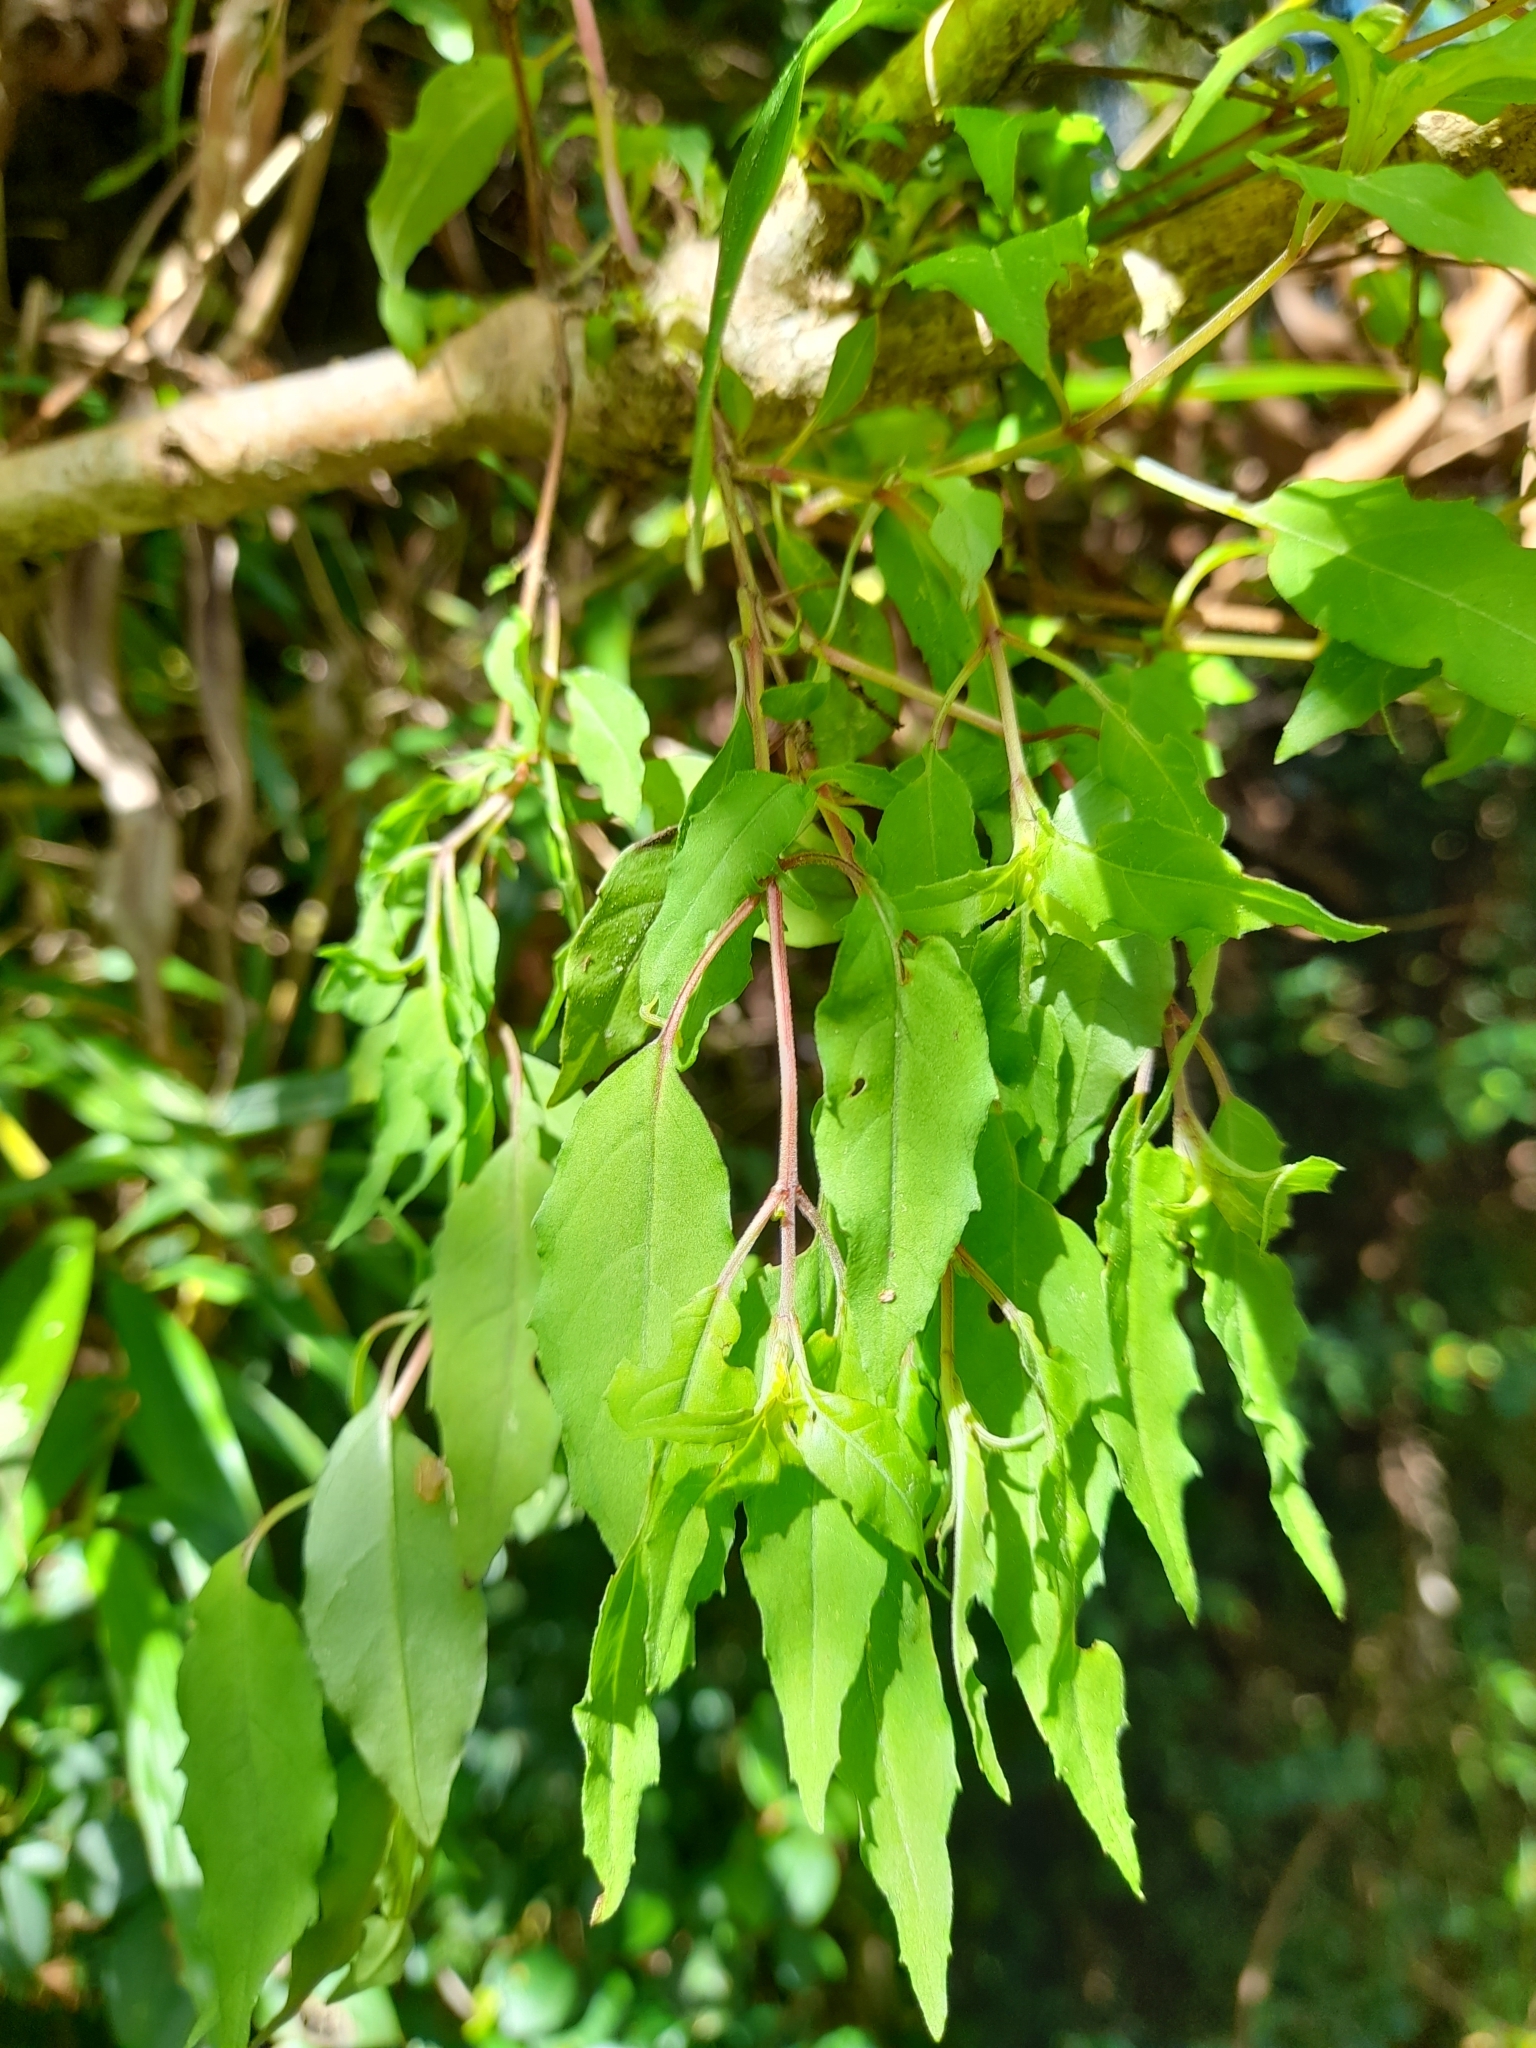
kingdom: Plantae
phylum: Tracheophyta
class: Magnoliopsida
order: Myrtales
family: Onagraceae
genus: Fuchsia
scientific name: Fuchsia magellanica
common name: Hardy fuchsia
